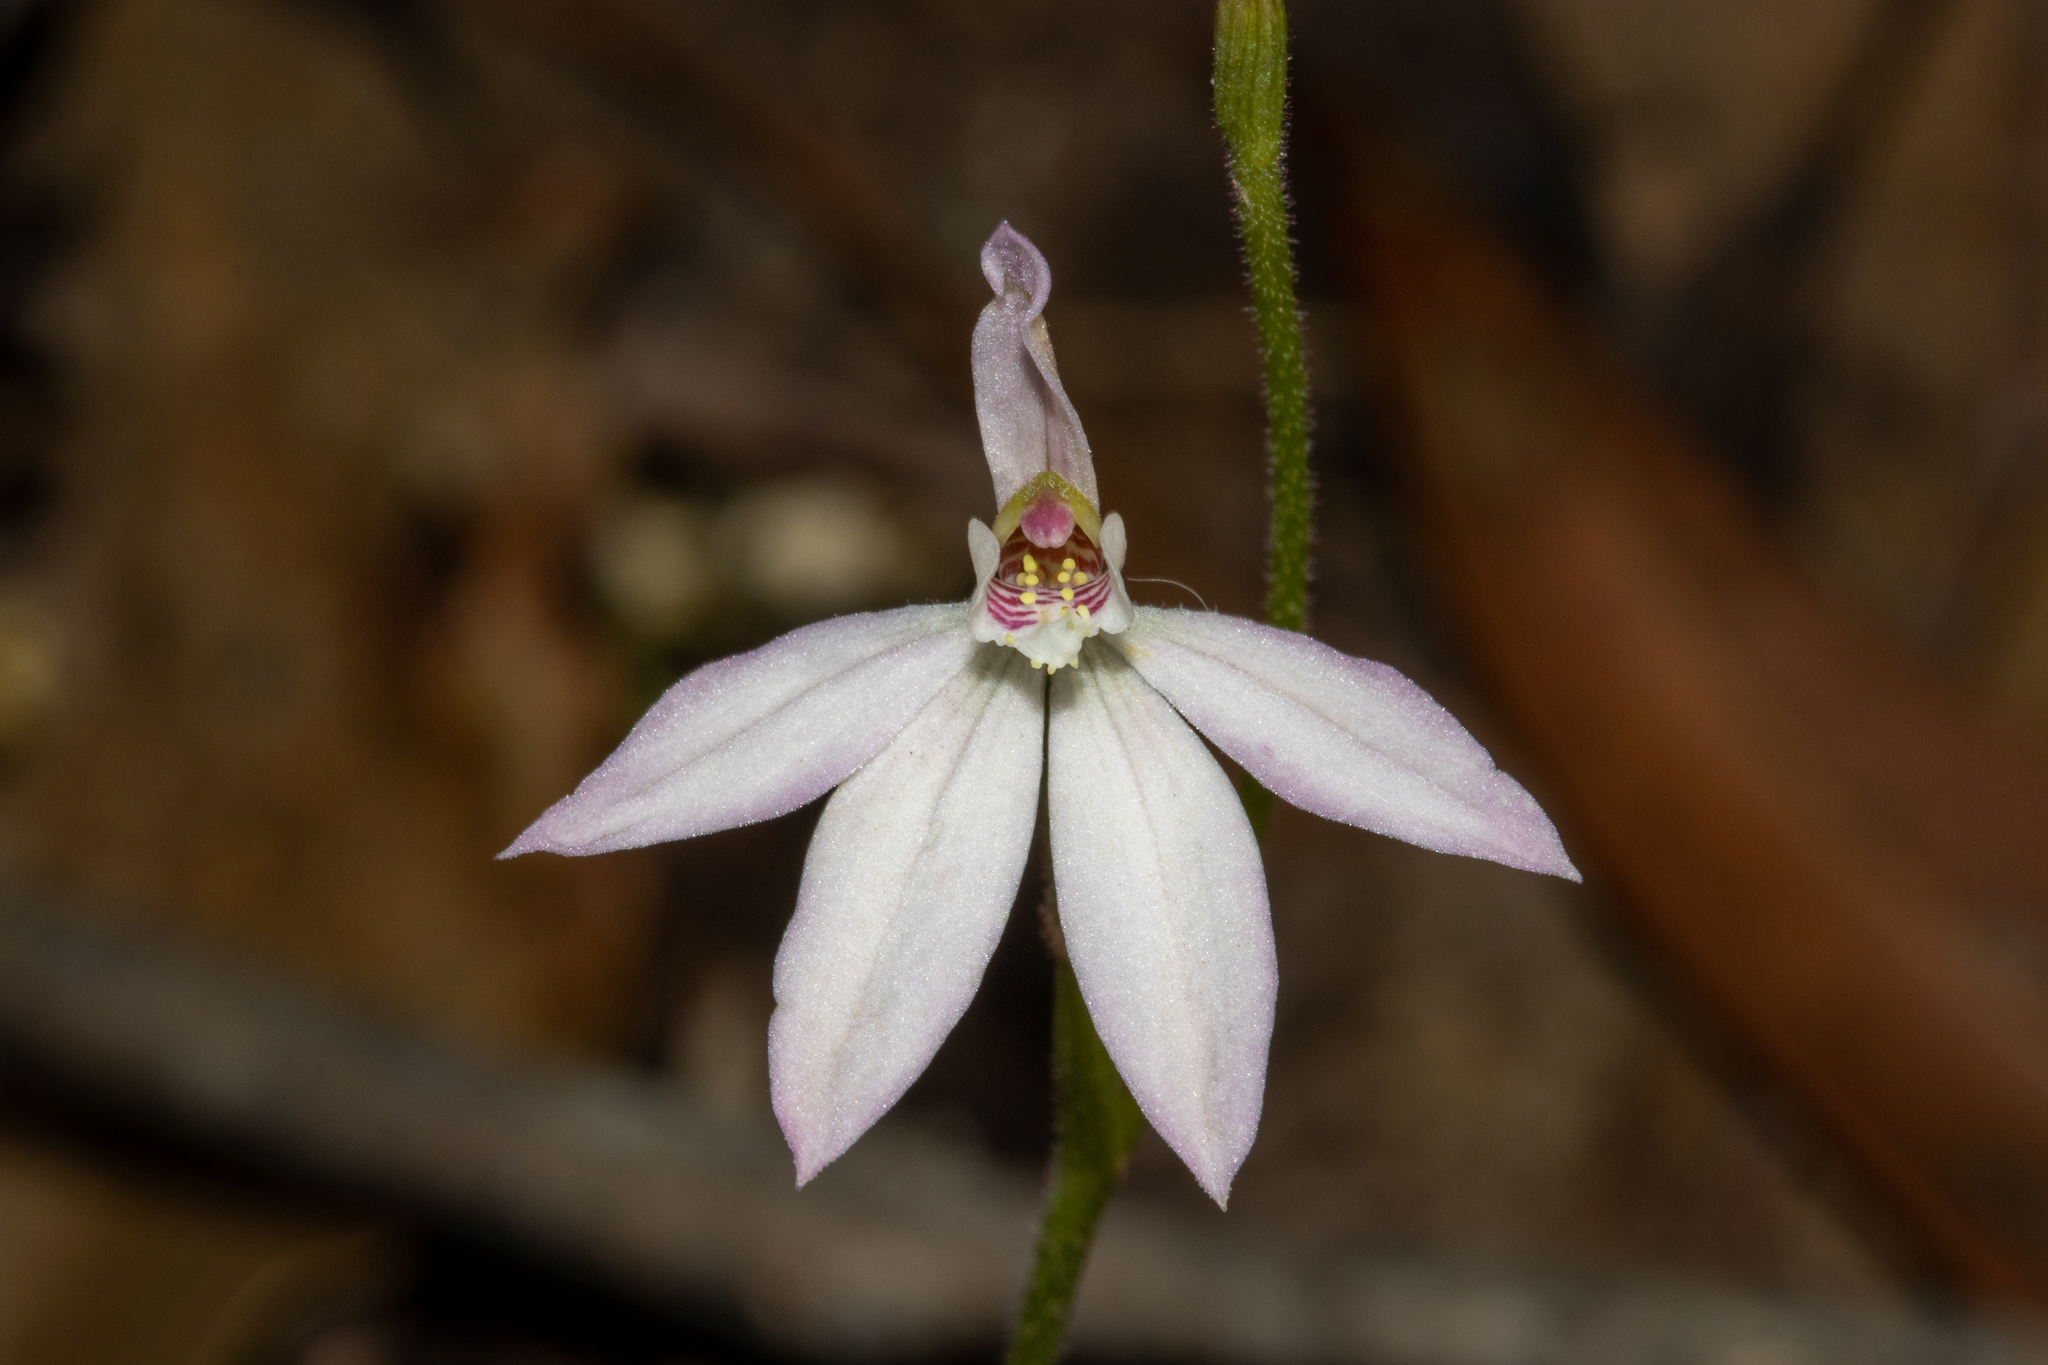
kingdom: Plantae
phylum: Tracheophyta
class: Liliopsida
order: Asparagales
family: Orchidaceae
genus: Caladenia
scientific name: Caladenia carnea
